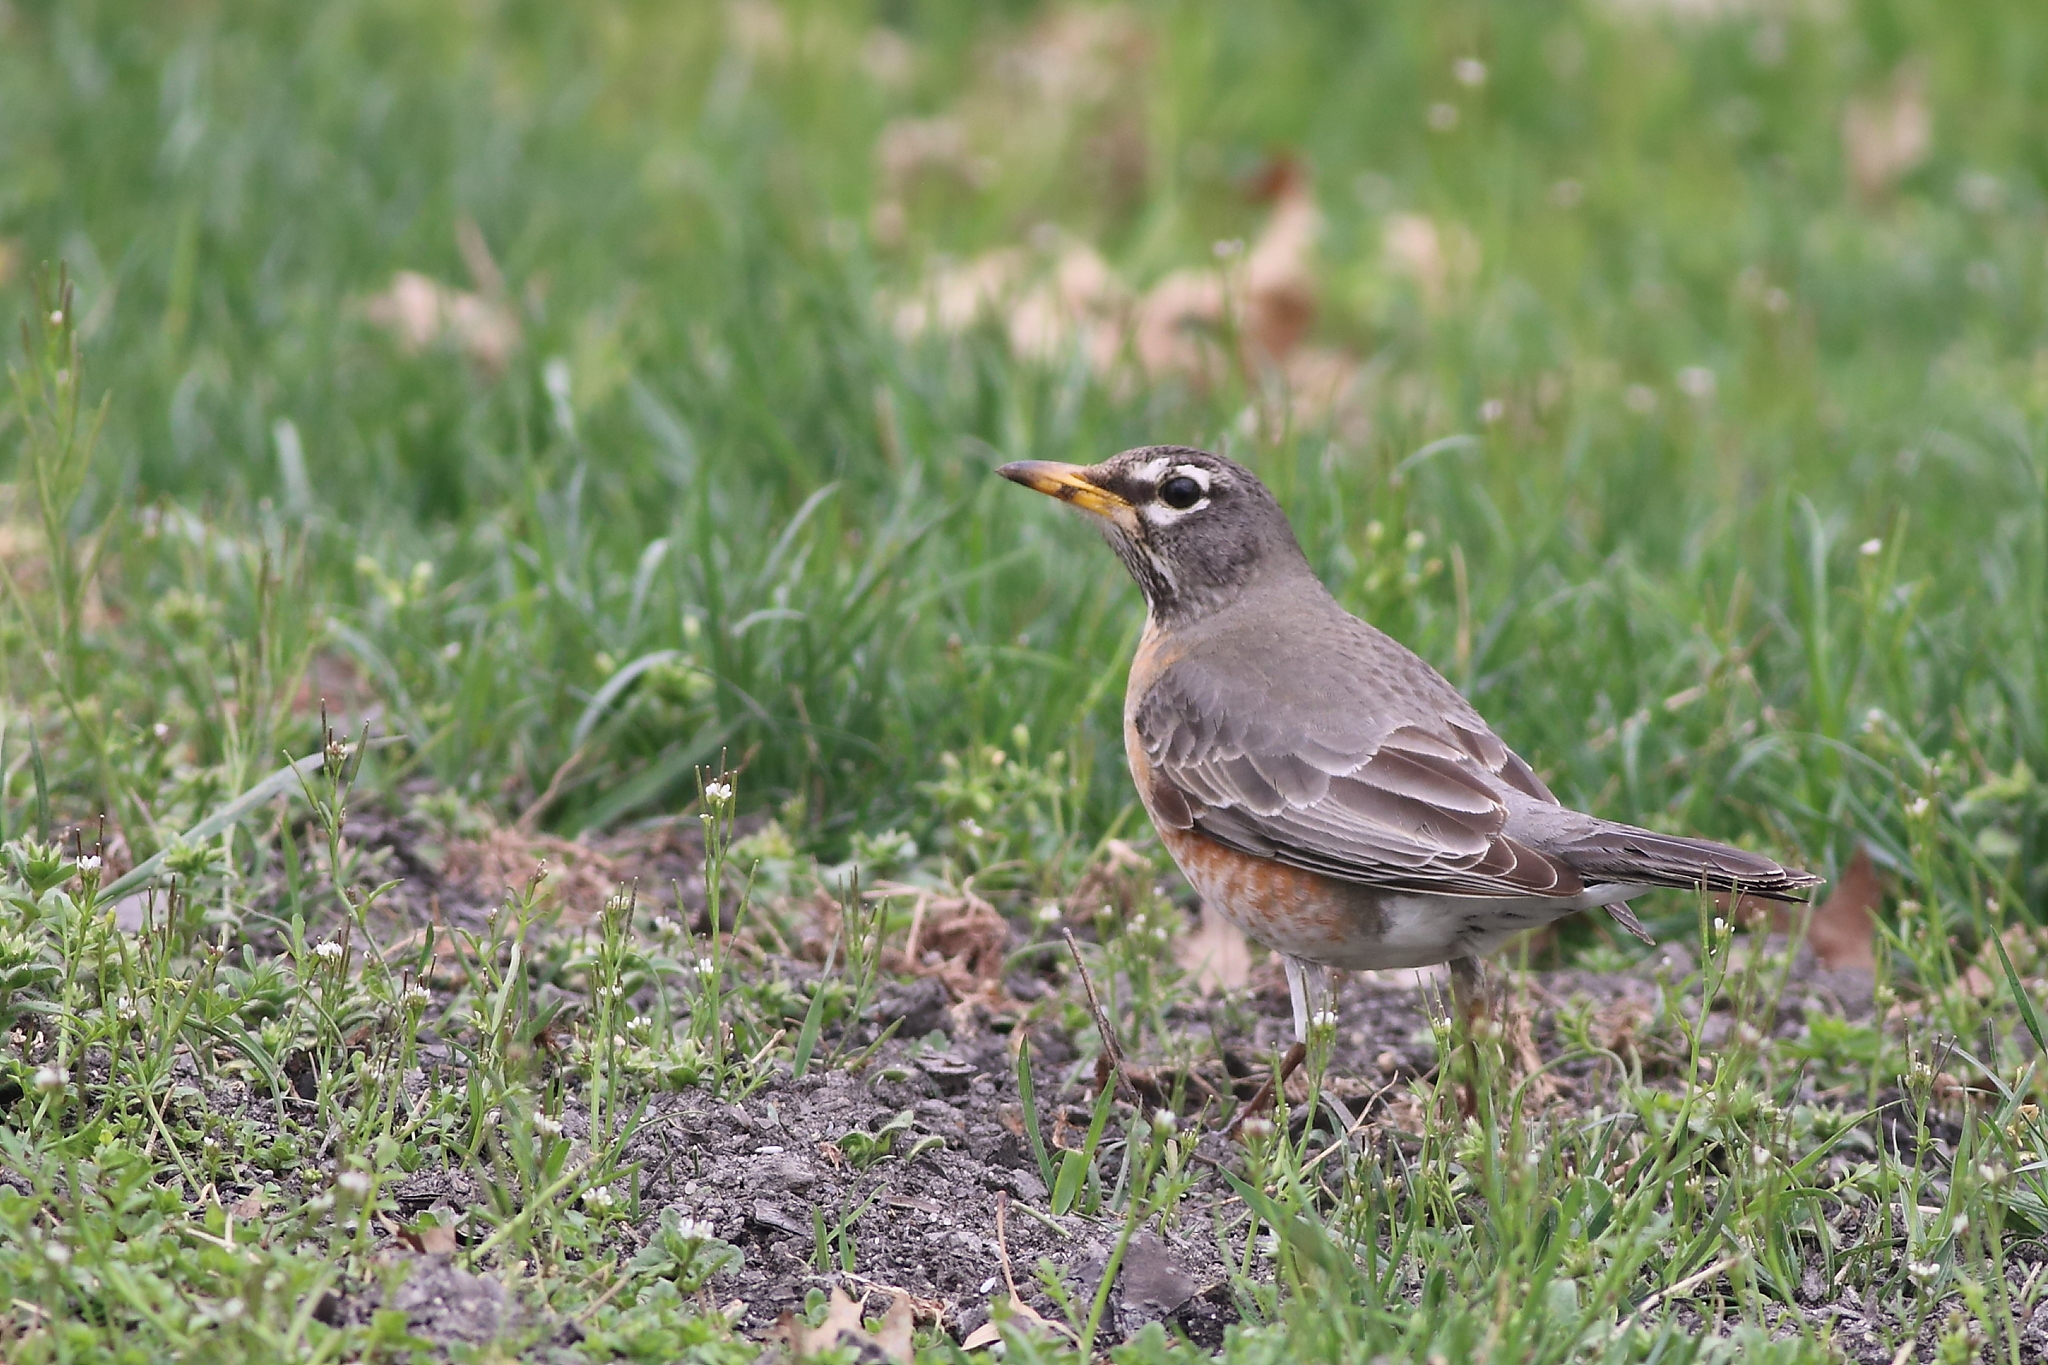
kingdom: Animalia
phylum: Chordata
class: Aves
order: Passeriformes
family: Turdidae
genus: Turdus
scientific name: Turdus migratorius
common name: American robin
